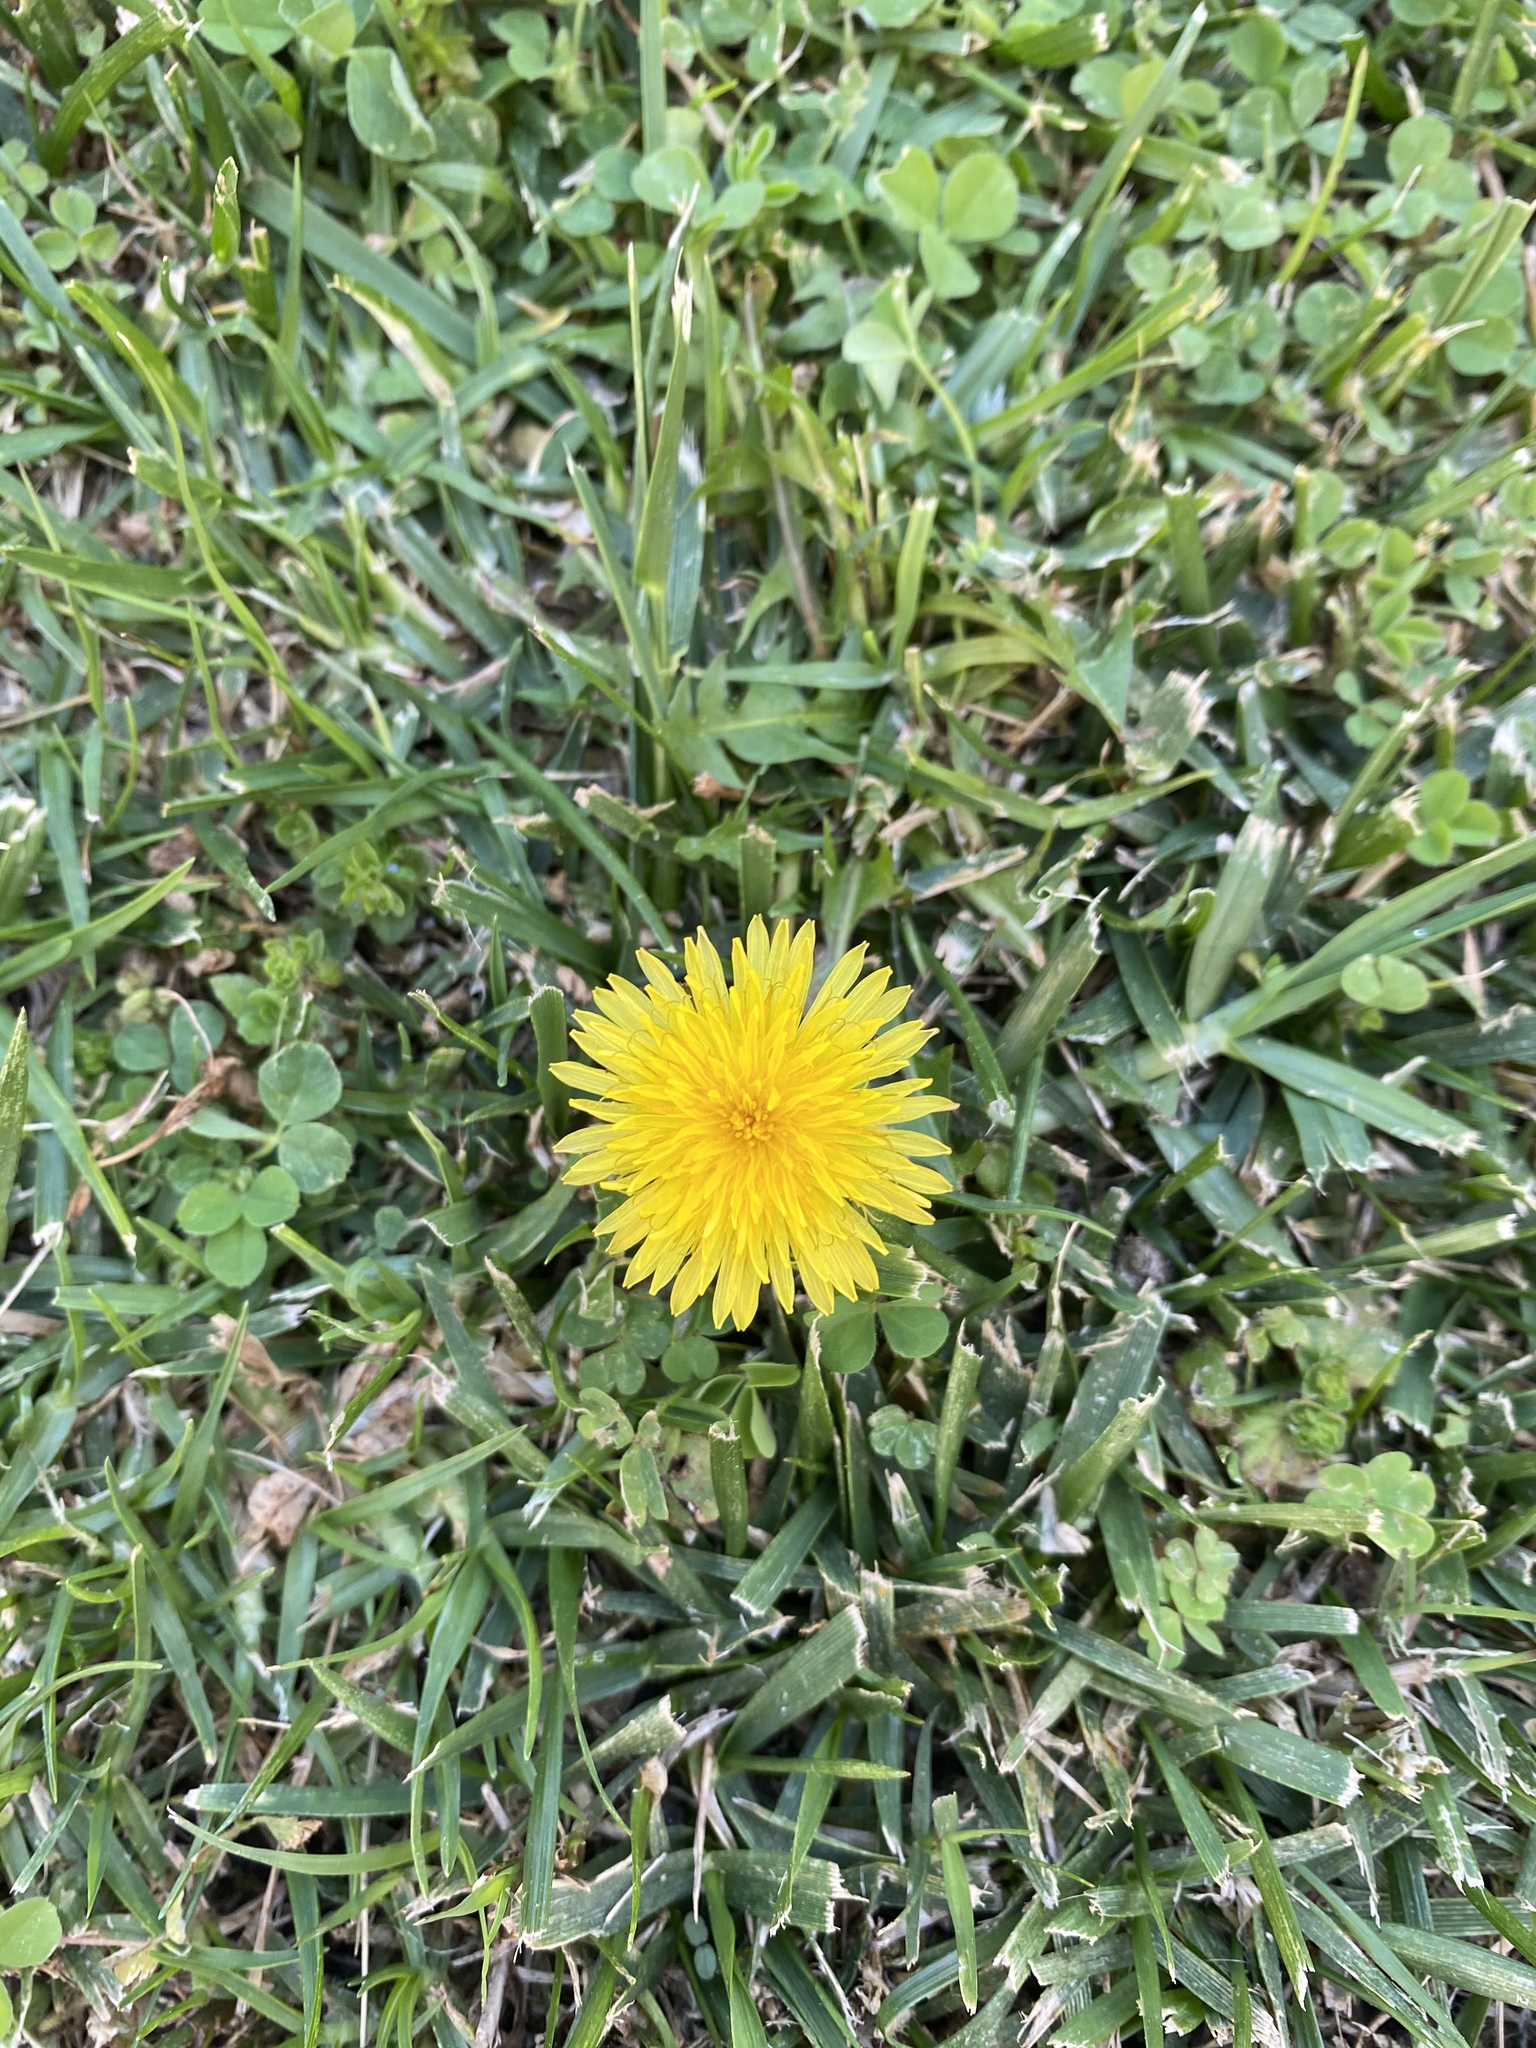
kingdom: Plantae
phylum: Tracheophyta
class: Magnoliopsida
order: Asterales
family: Asteraceae
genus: Taraxacum
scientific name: Taraxacum officinale
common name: Common dandelion
